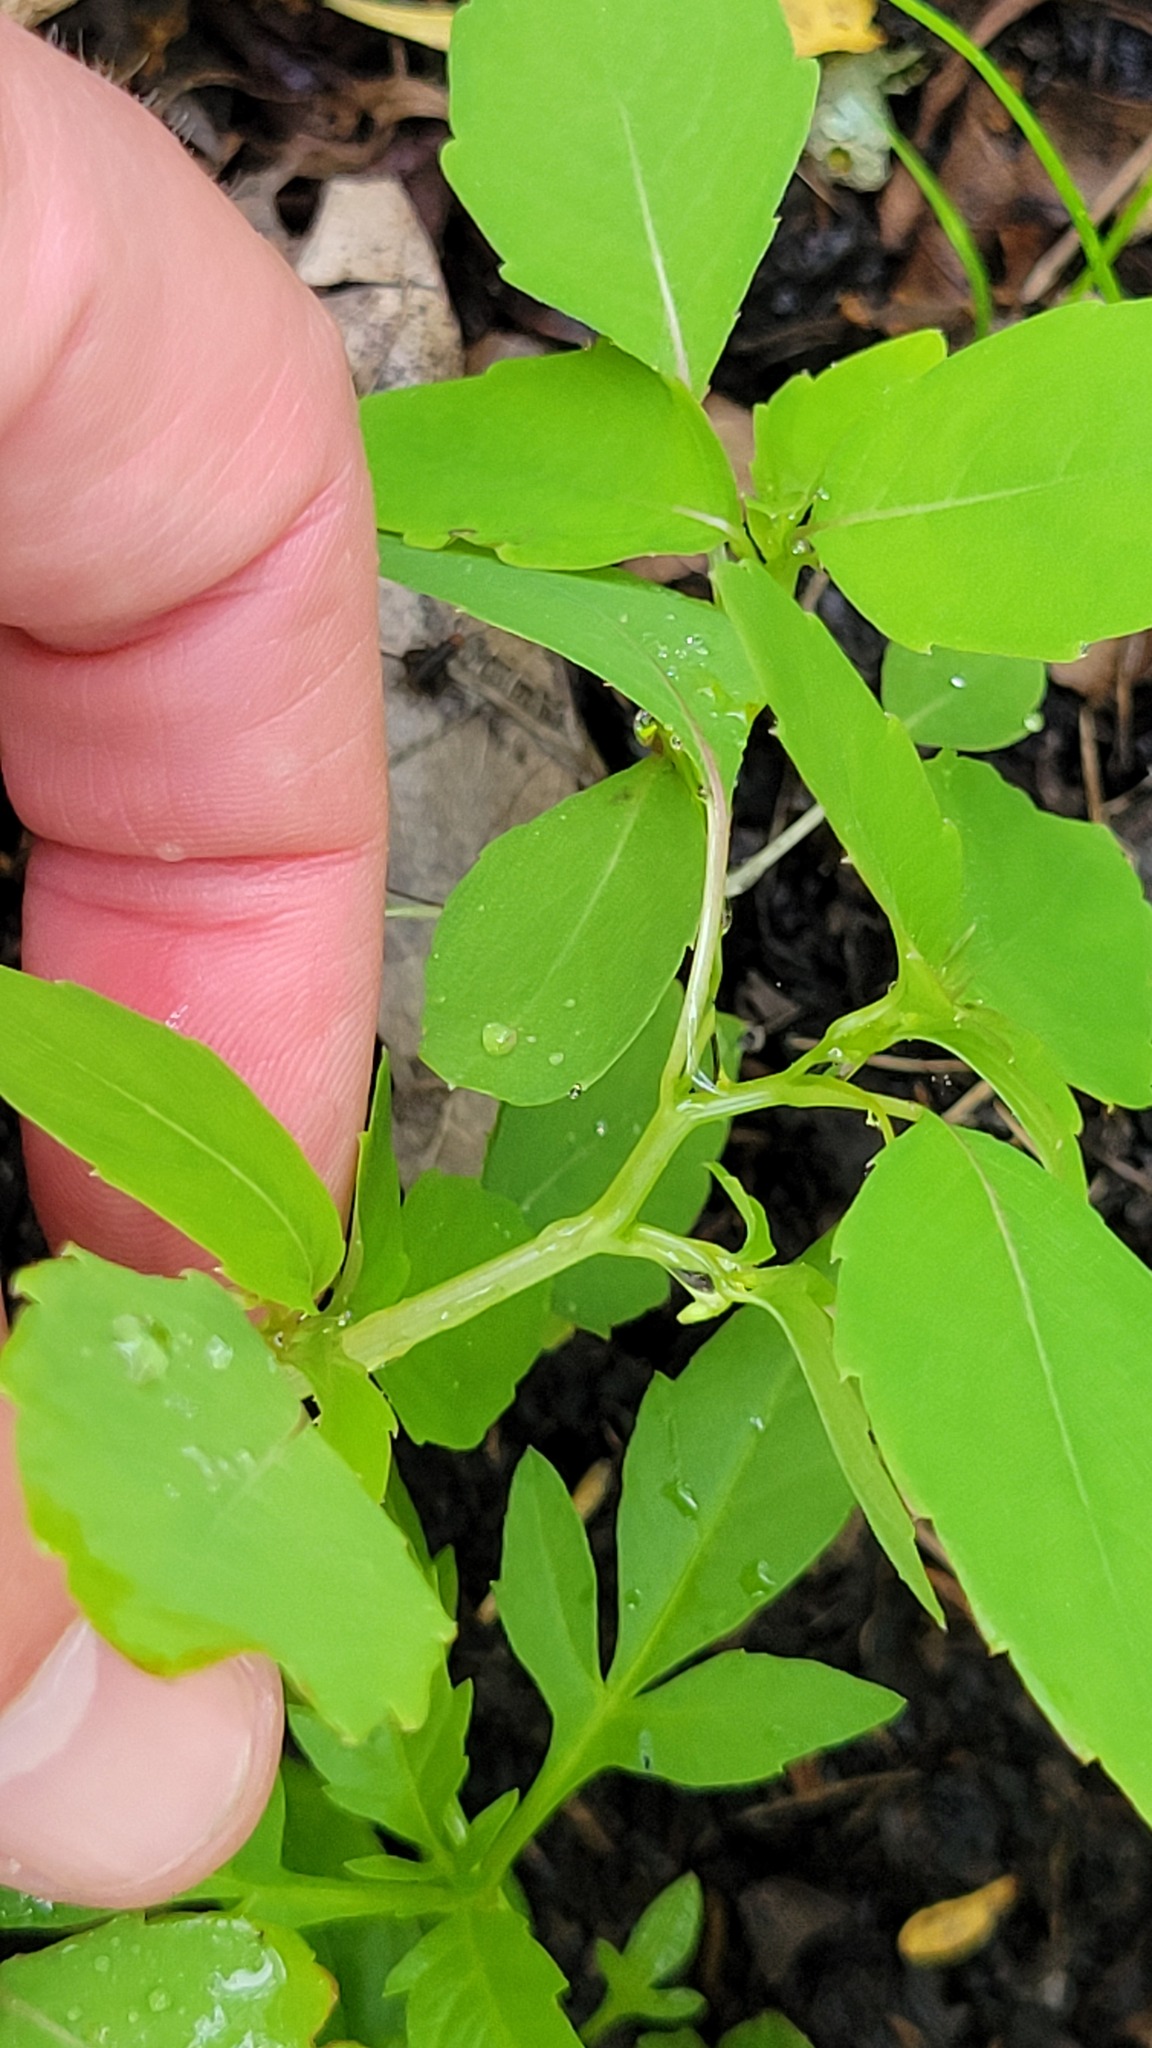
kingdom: Plantae
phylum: Tracheophyta
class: Magnoliopsida
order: Ericales
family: Balsaminaceae
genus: Impatiens
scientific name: Impatiens capensis
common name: Orange balsam
